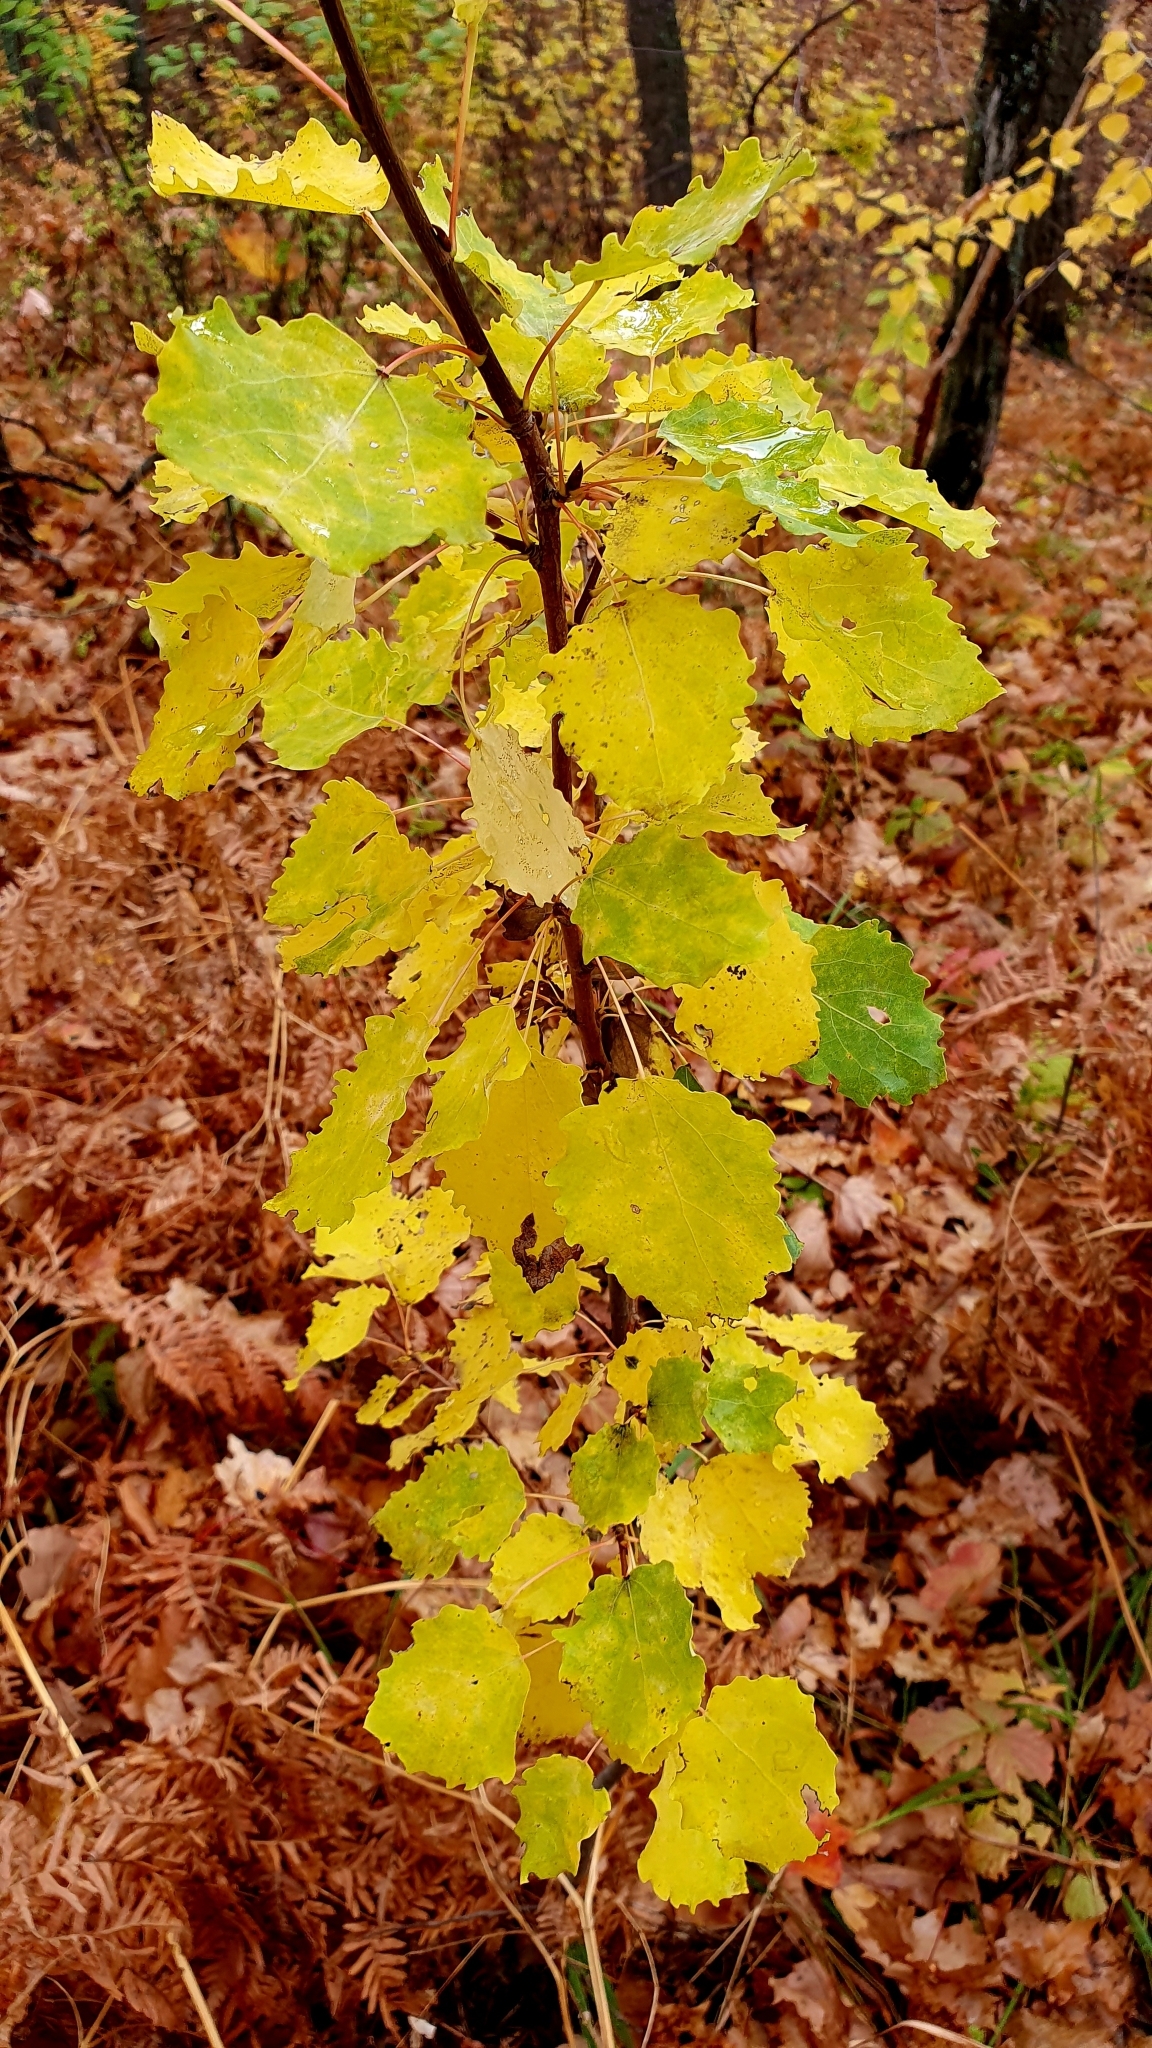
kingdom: Plantae
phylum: Tracheophyta
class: Magnoliopsida
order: Malpighiales
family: Salicaceae
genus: Populus
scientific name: Populus tremula
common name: European aspen
